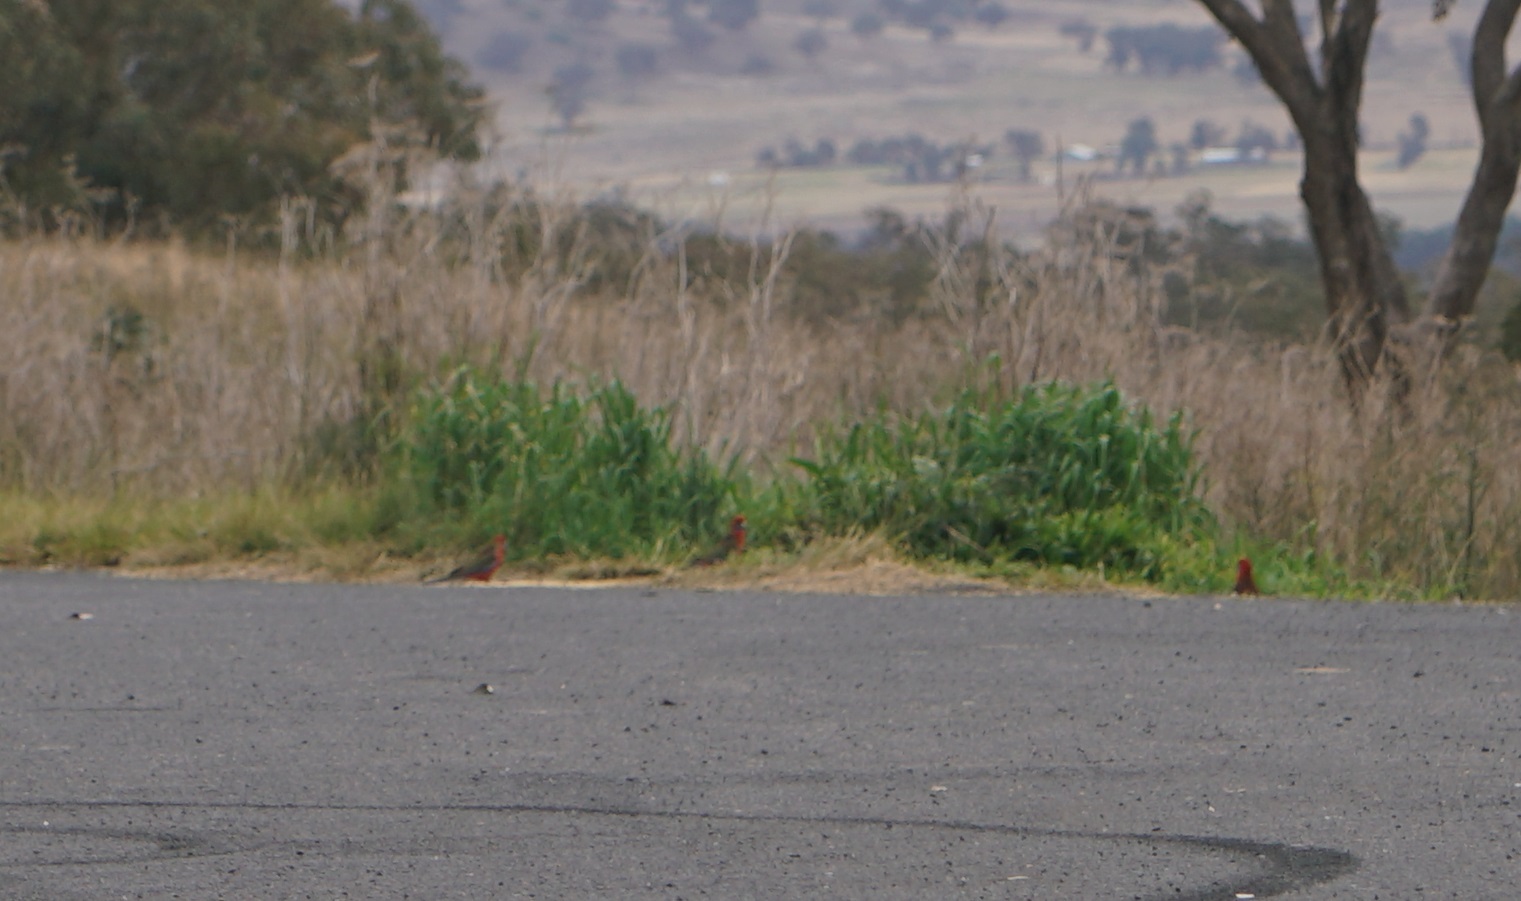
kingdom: Animalia
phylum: Chordata
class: Aves
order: Psittaciformes
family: Psittacidae
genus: Platycercus
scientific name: Platycercus elegans
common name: Crimson rosella
